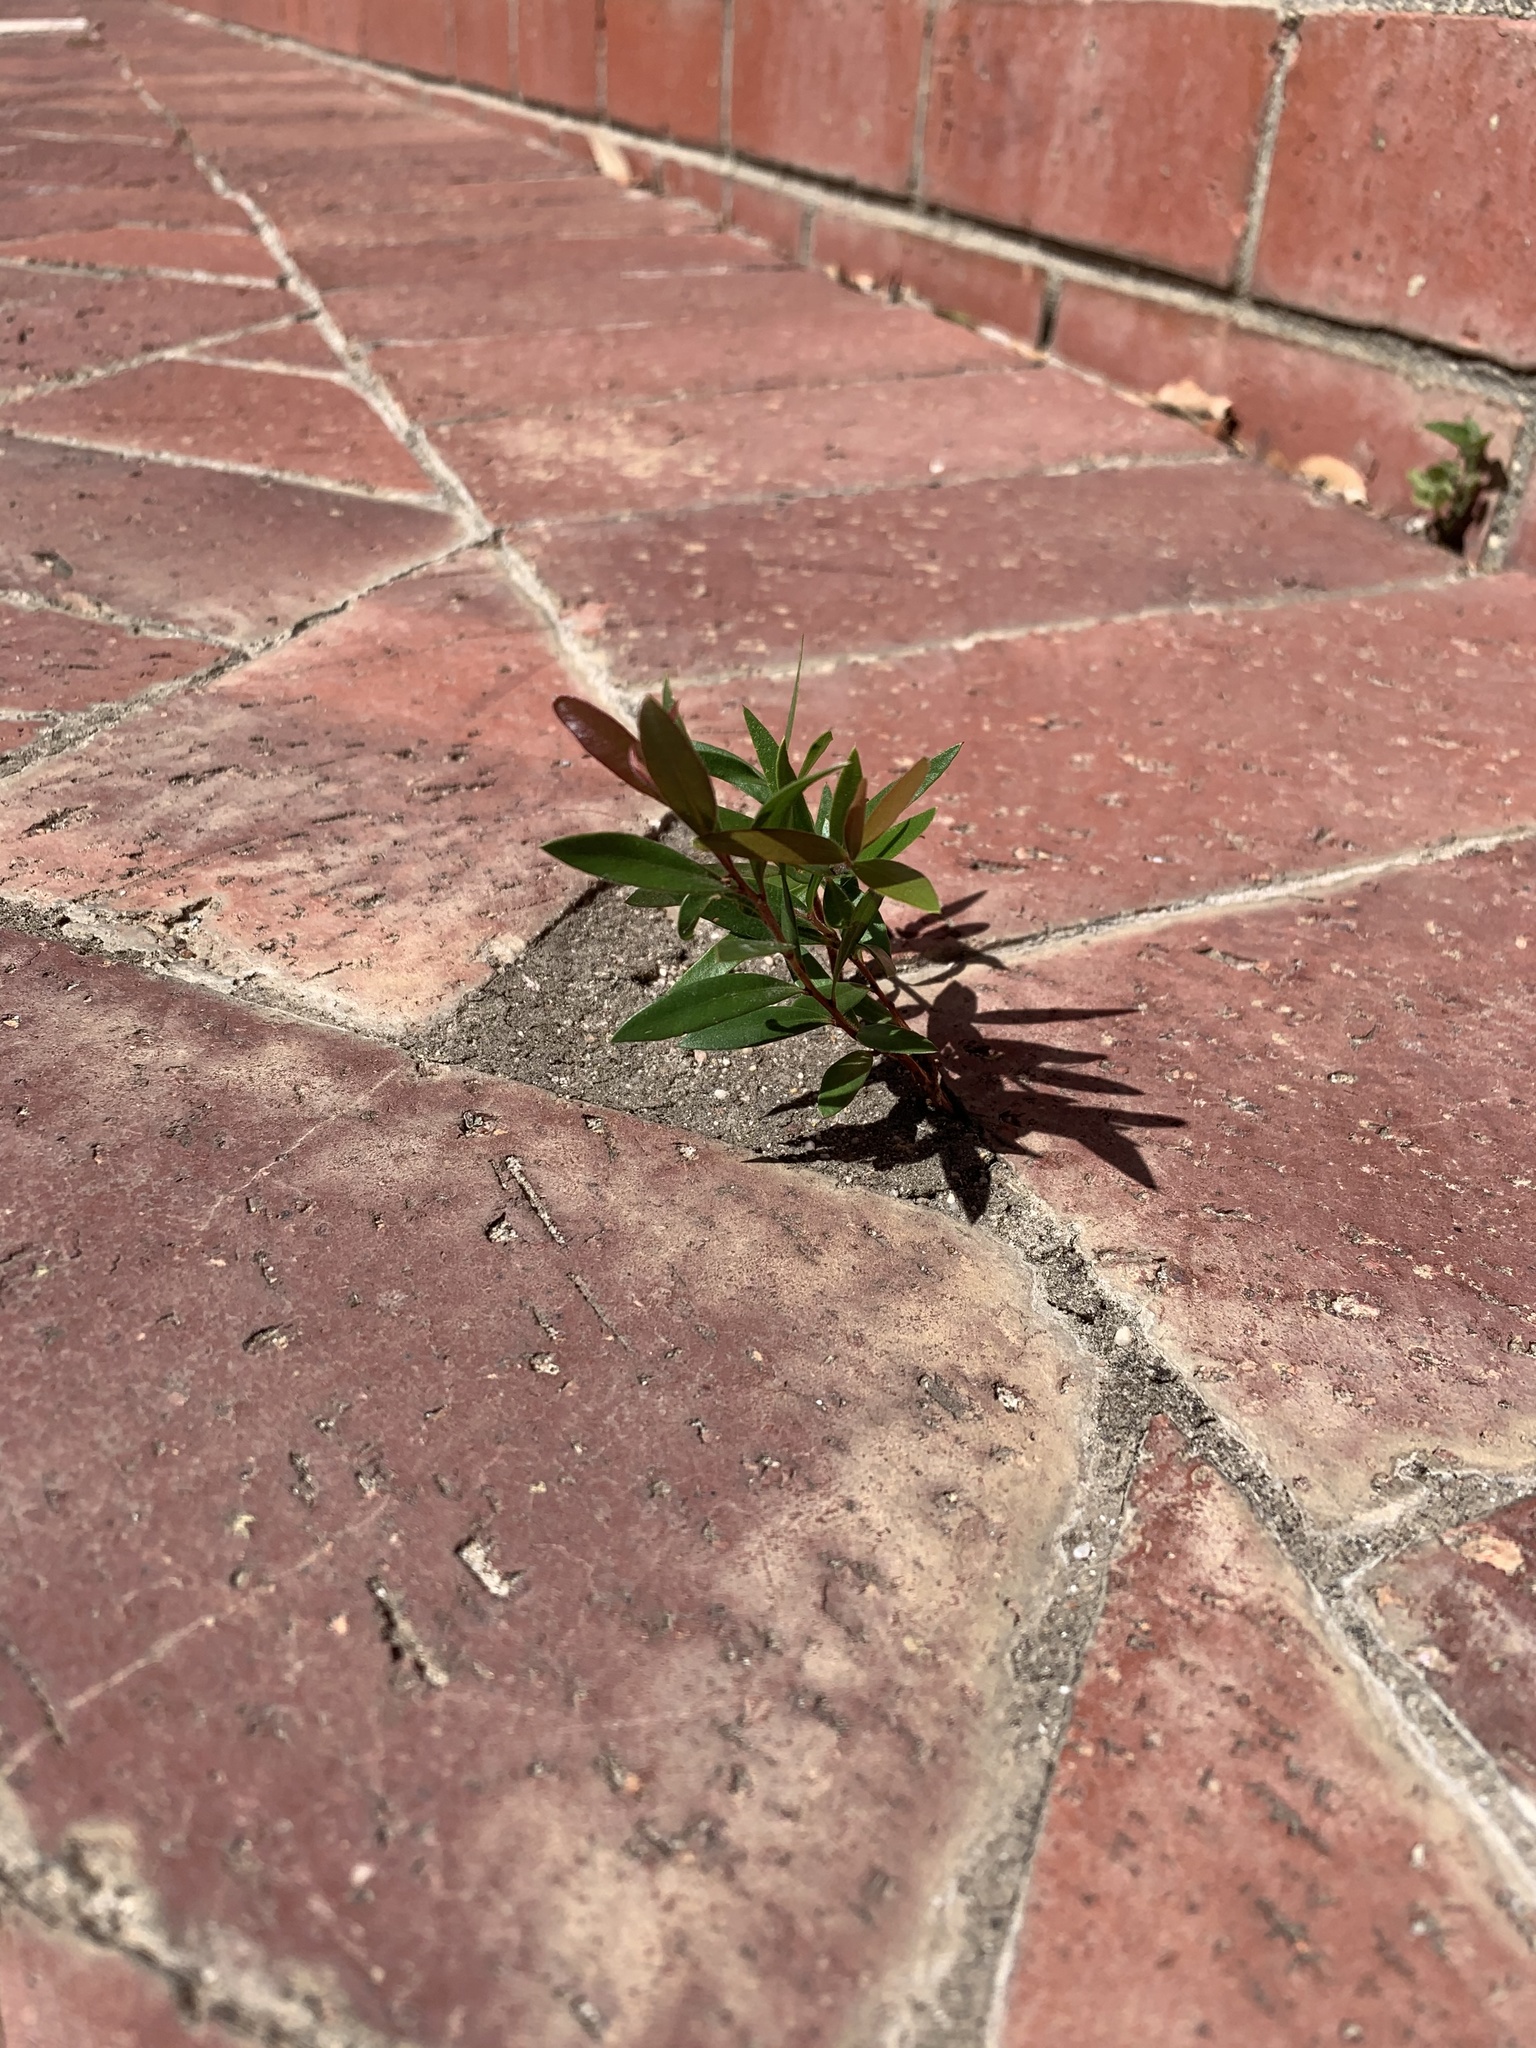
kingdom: Plantae
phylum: Tracheophyta
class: Magnoliopsida
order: Myrtales
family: Myrtaceae
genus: Callistemon
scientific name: Callistemon viminalis
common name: Drooping bottlebrush
